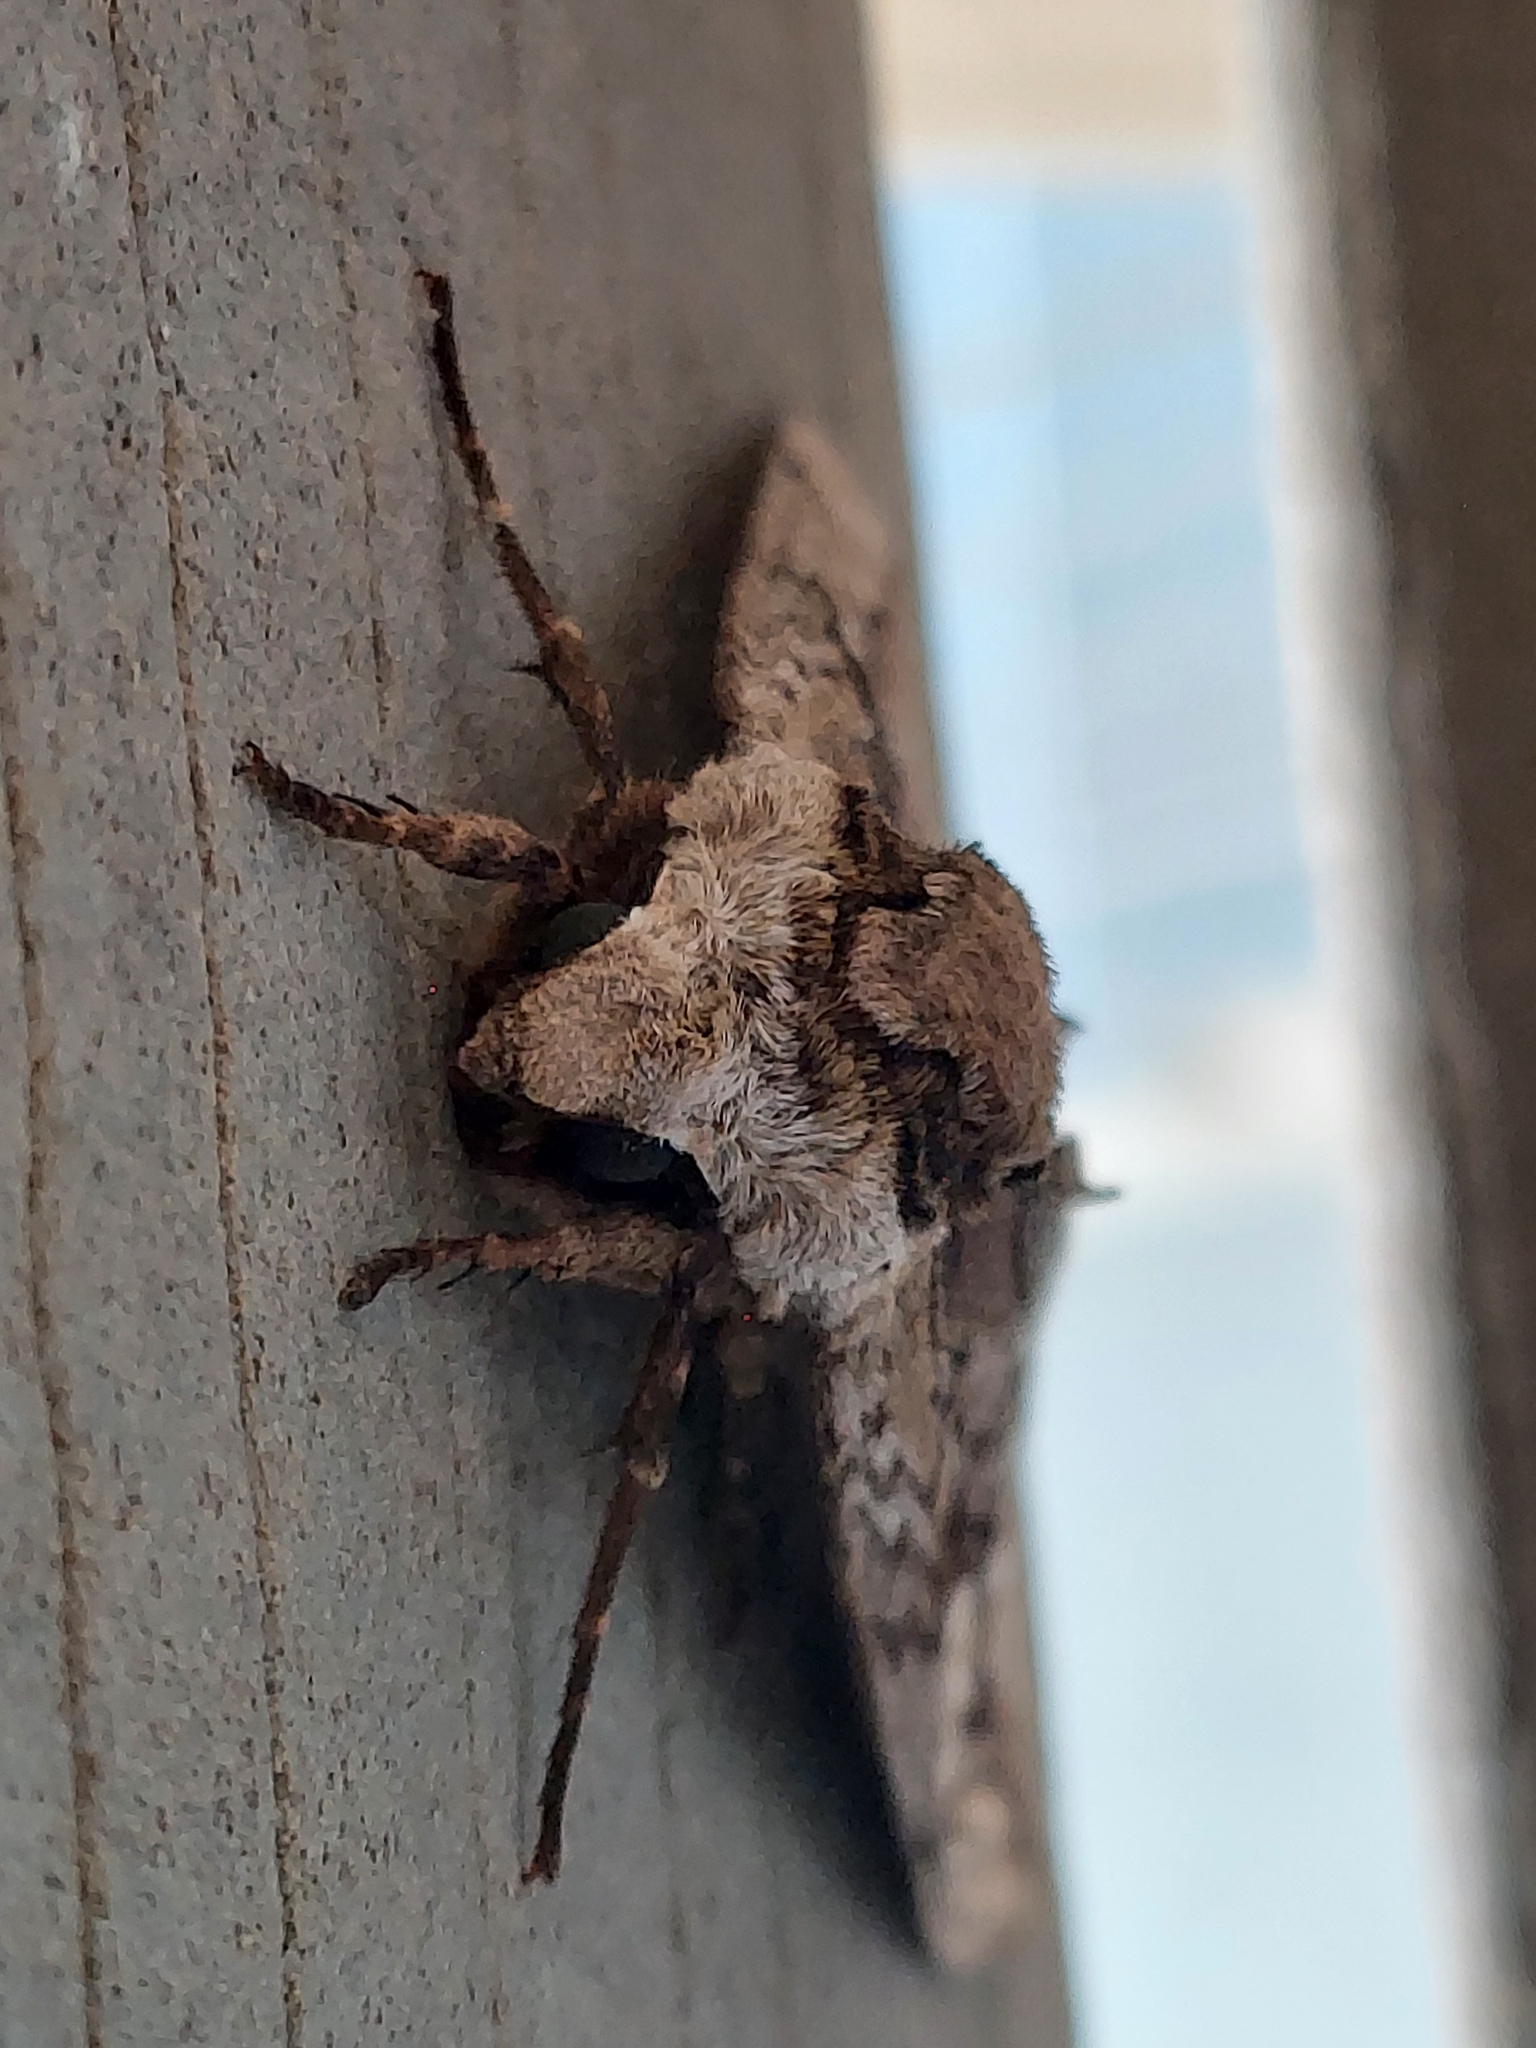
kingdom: Animalia
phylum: Arthropoda
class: Insecta
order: Lepidoptera
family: Sphingidae
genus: Ceratomia
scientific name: Ceratomia amyntor
